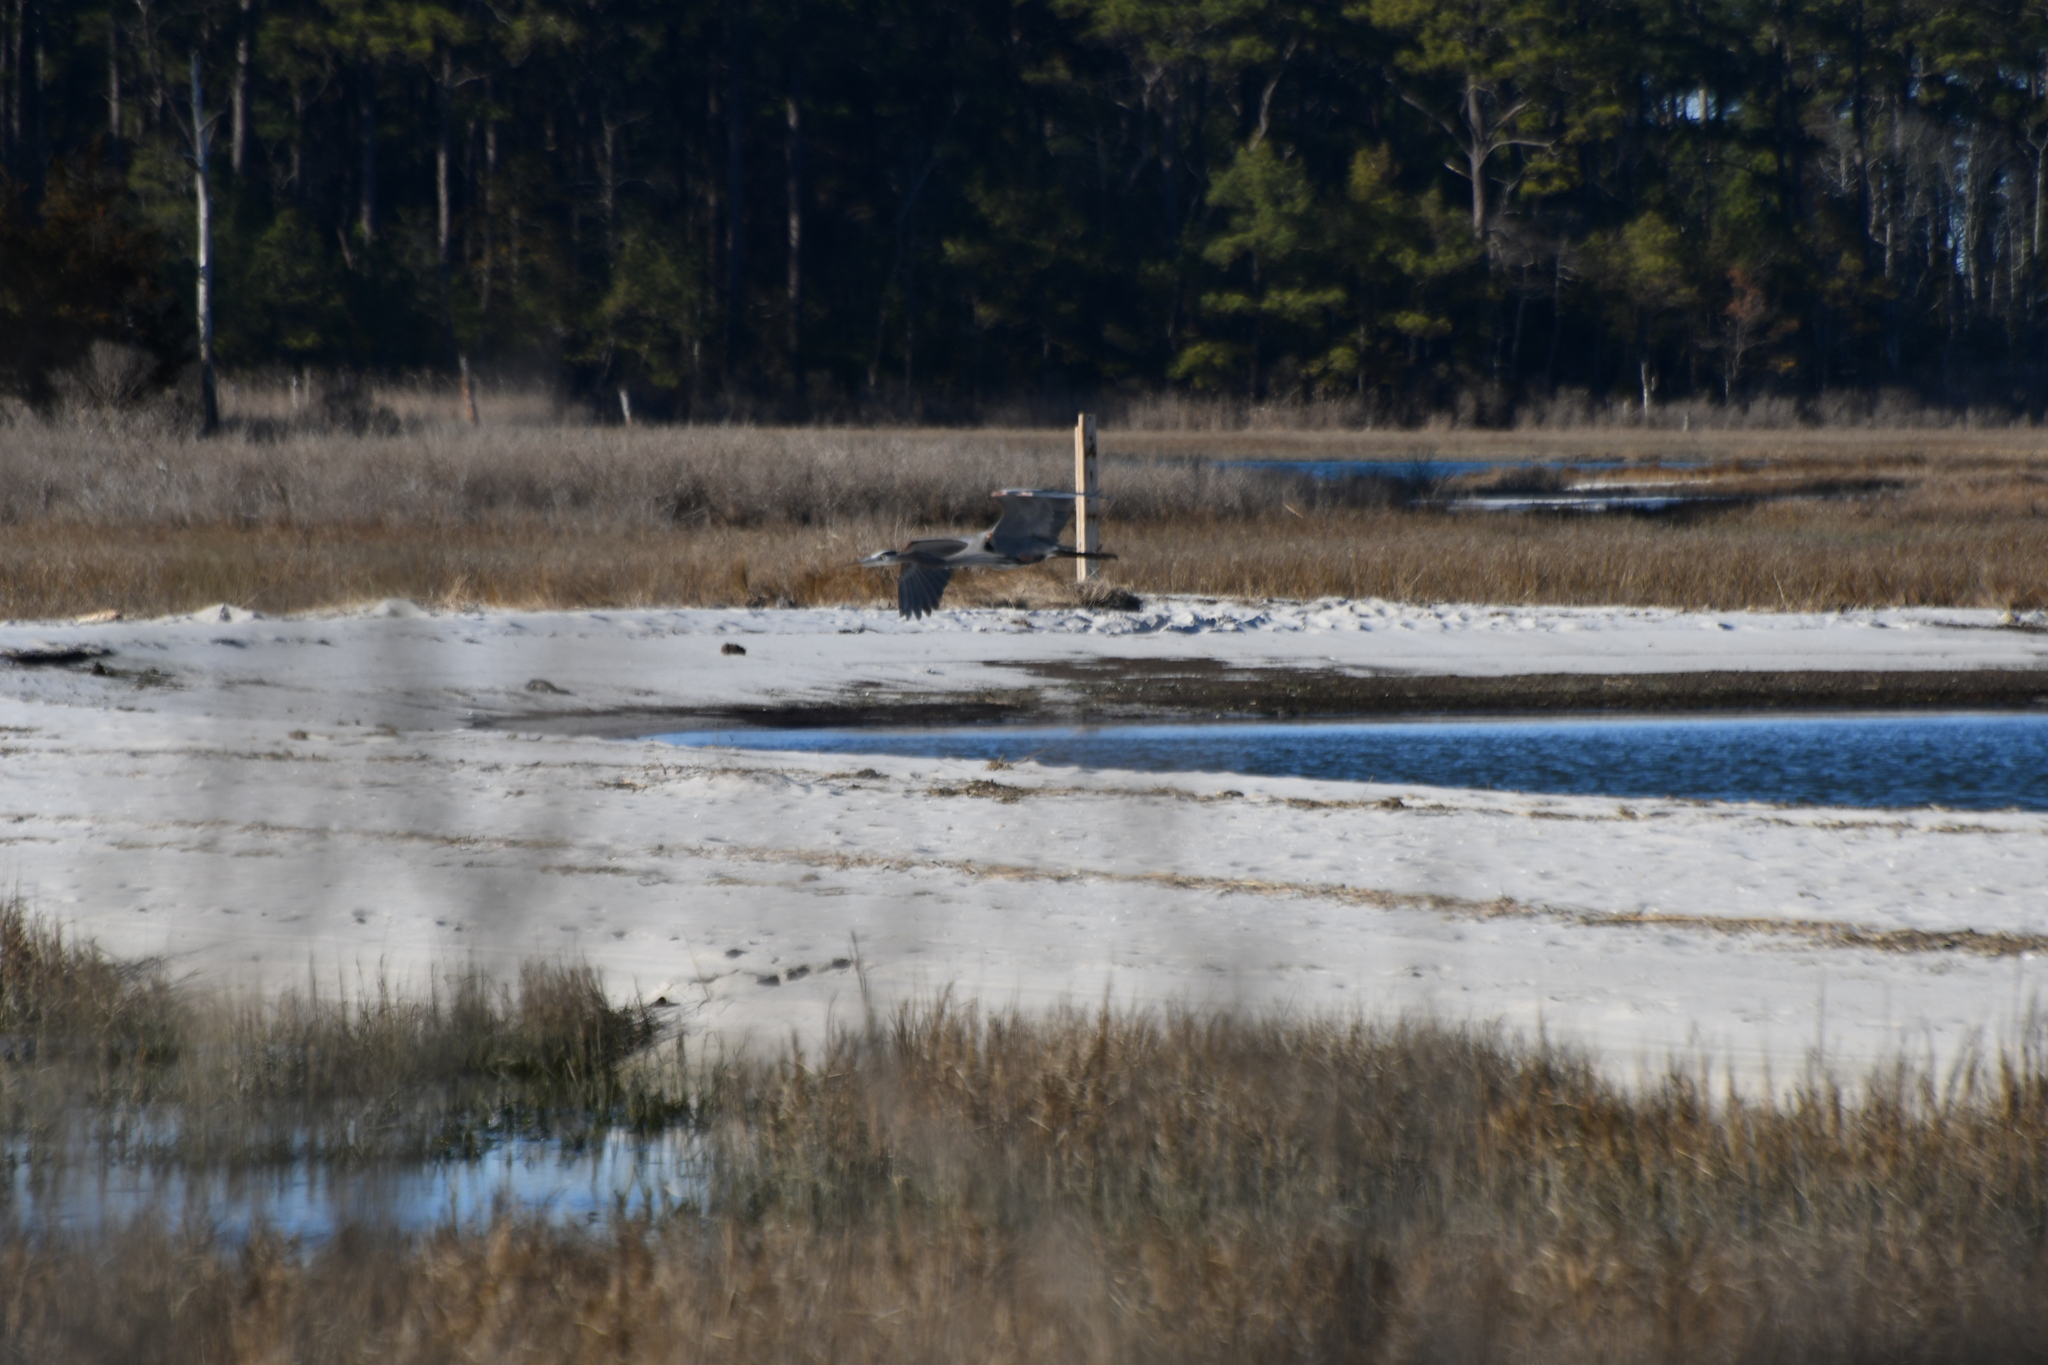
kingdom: Animalia
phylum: Chordata
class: Aves
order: Pelecaniformes
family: Ardeidae
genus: Ardea
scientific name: Ardea herodias
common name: Great blue heron
